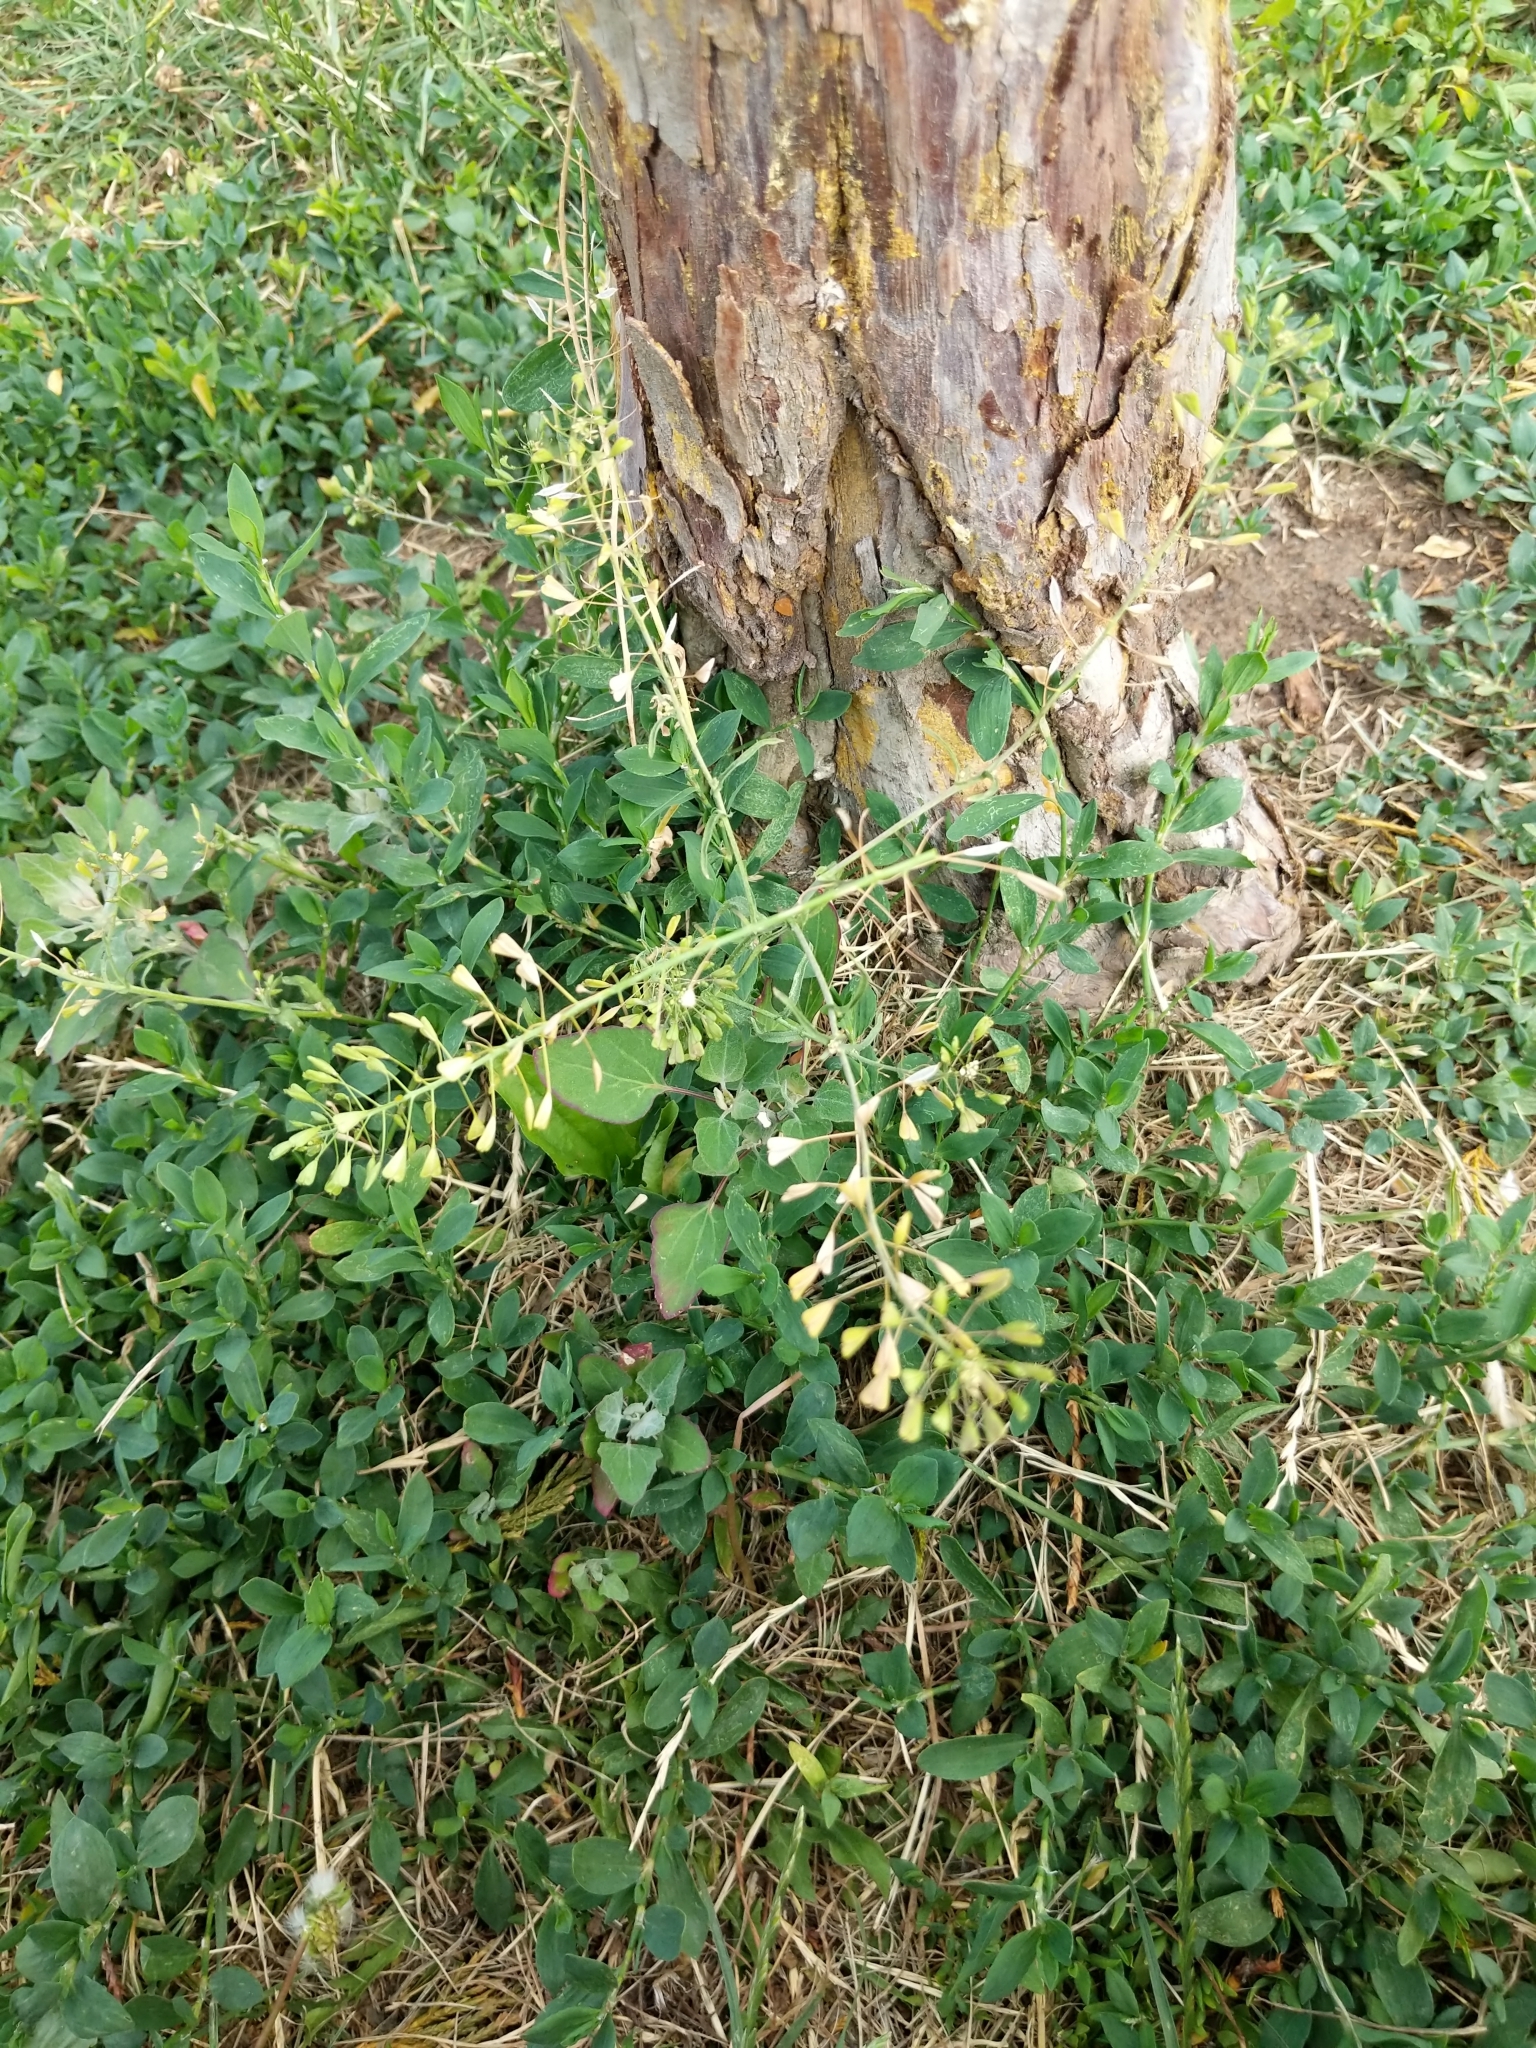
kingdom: Plantae
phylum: Tracheophyta
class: Magnoliopsida
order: Brassicales
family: Brassicaceae
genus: Capsella
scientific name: Capsella bursa-pastoris
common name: Shepherd's purse
